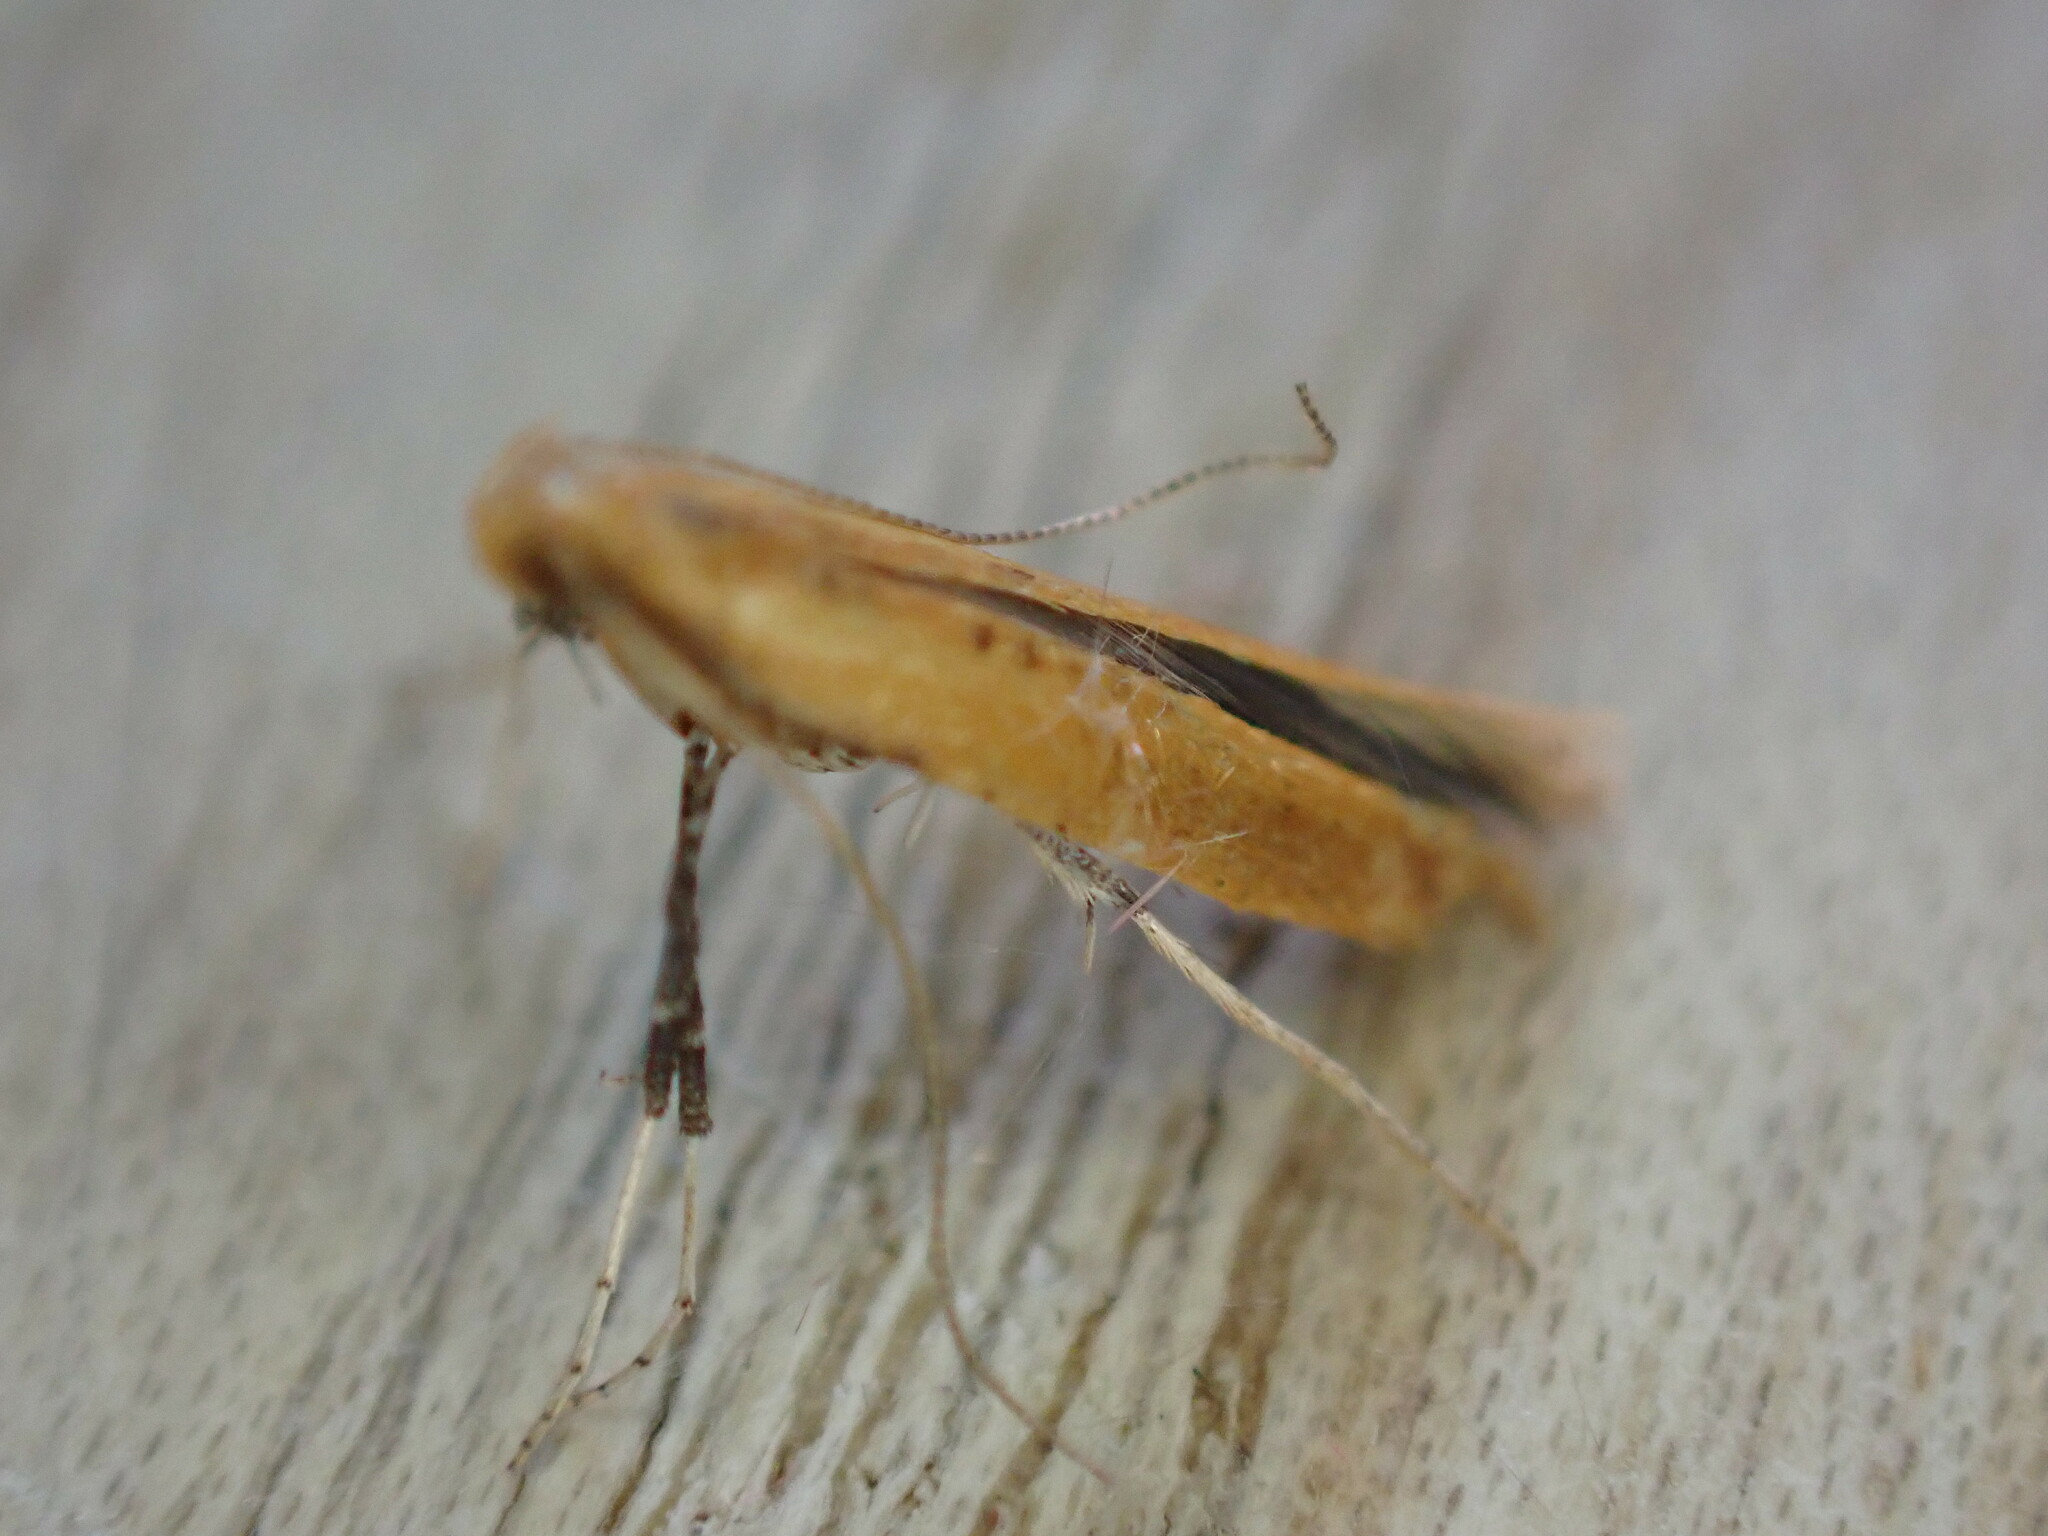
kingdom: Animalia
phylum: Arthropoda
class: Insecta
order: Lepidoptera
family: Gracillariidae
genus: Caloptilia
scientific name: Caloptilia rufipennella
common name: Small red slender
